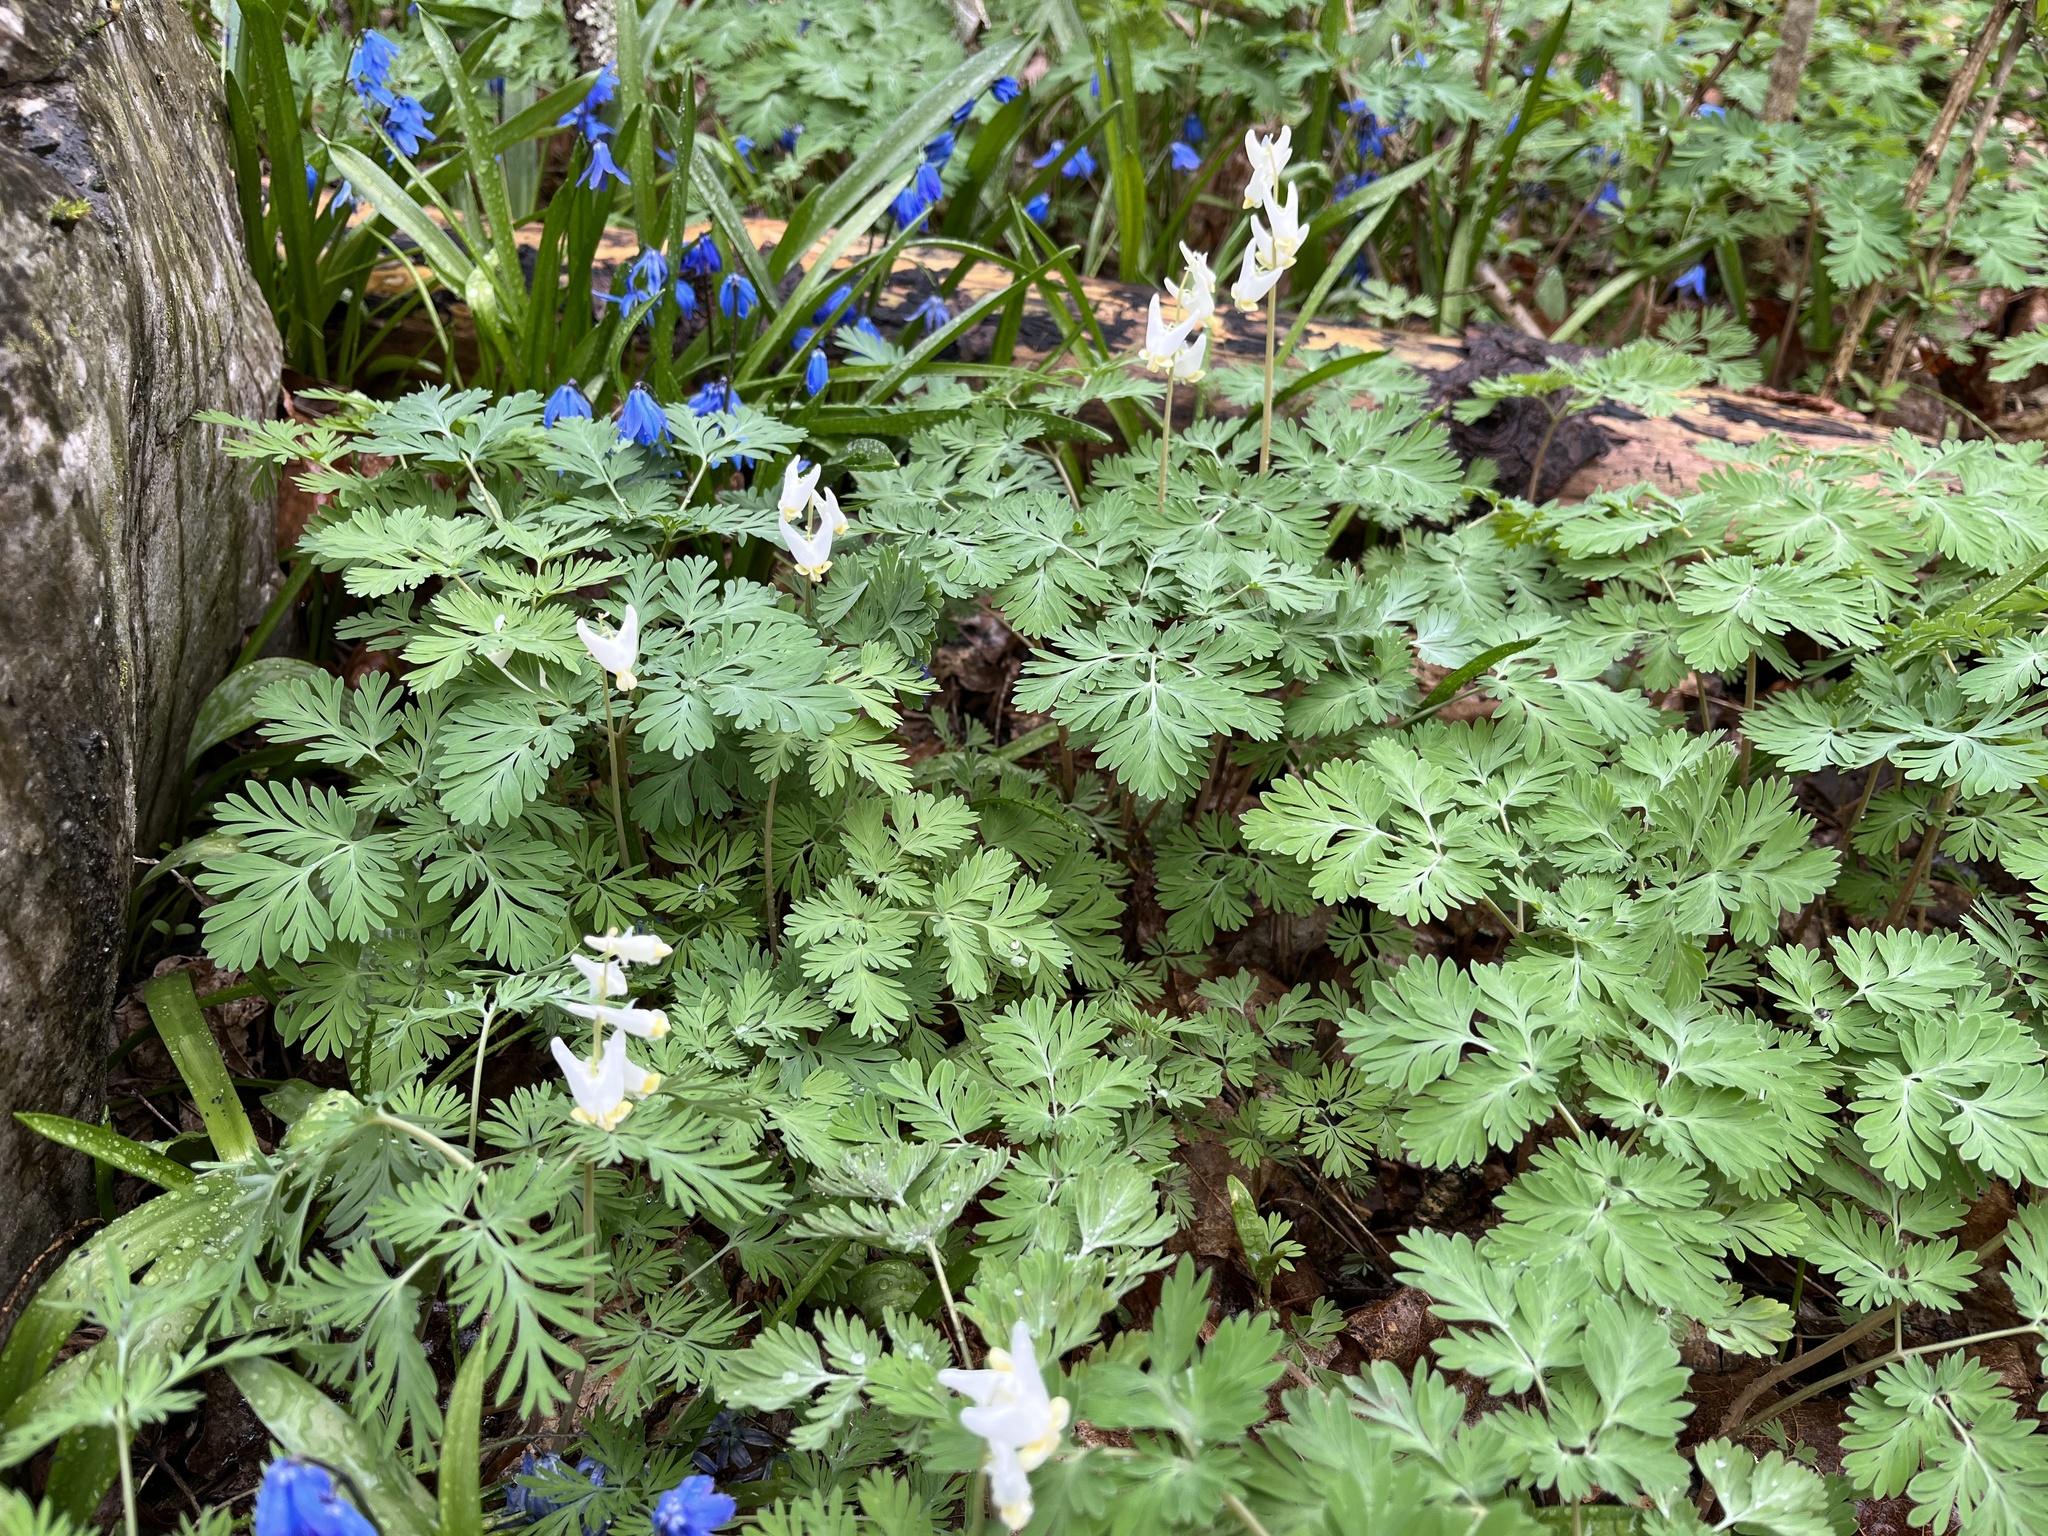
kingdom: Plantae
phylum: Tracheophyta
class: Magnoliopsida
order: Ranunculales
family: Papaveraceae
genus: Dicentra
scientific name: Dicentra cucullaria
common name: Dutchman's breeches
